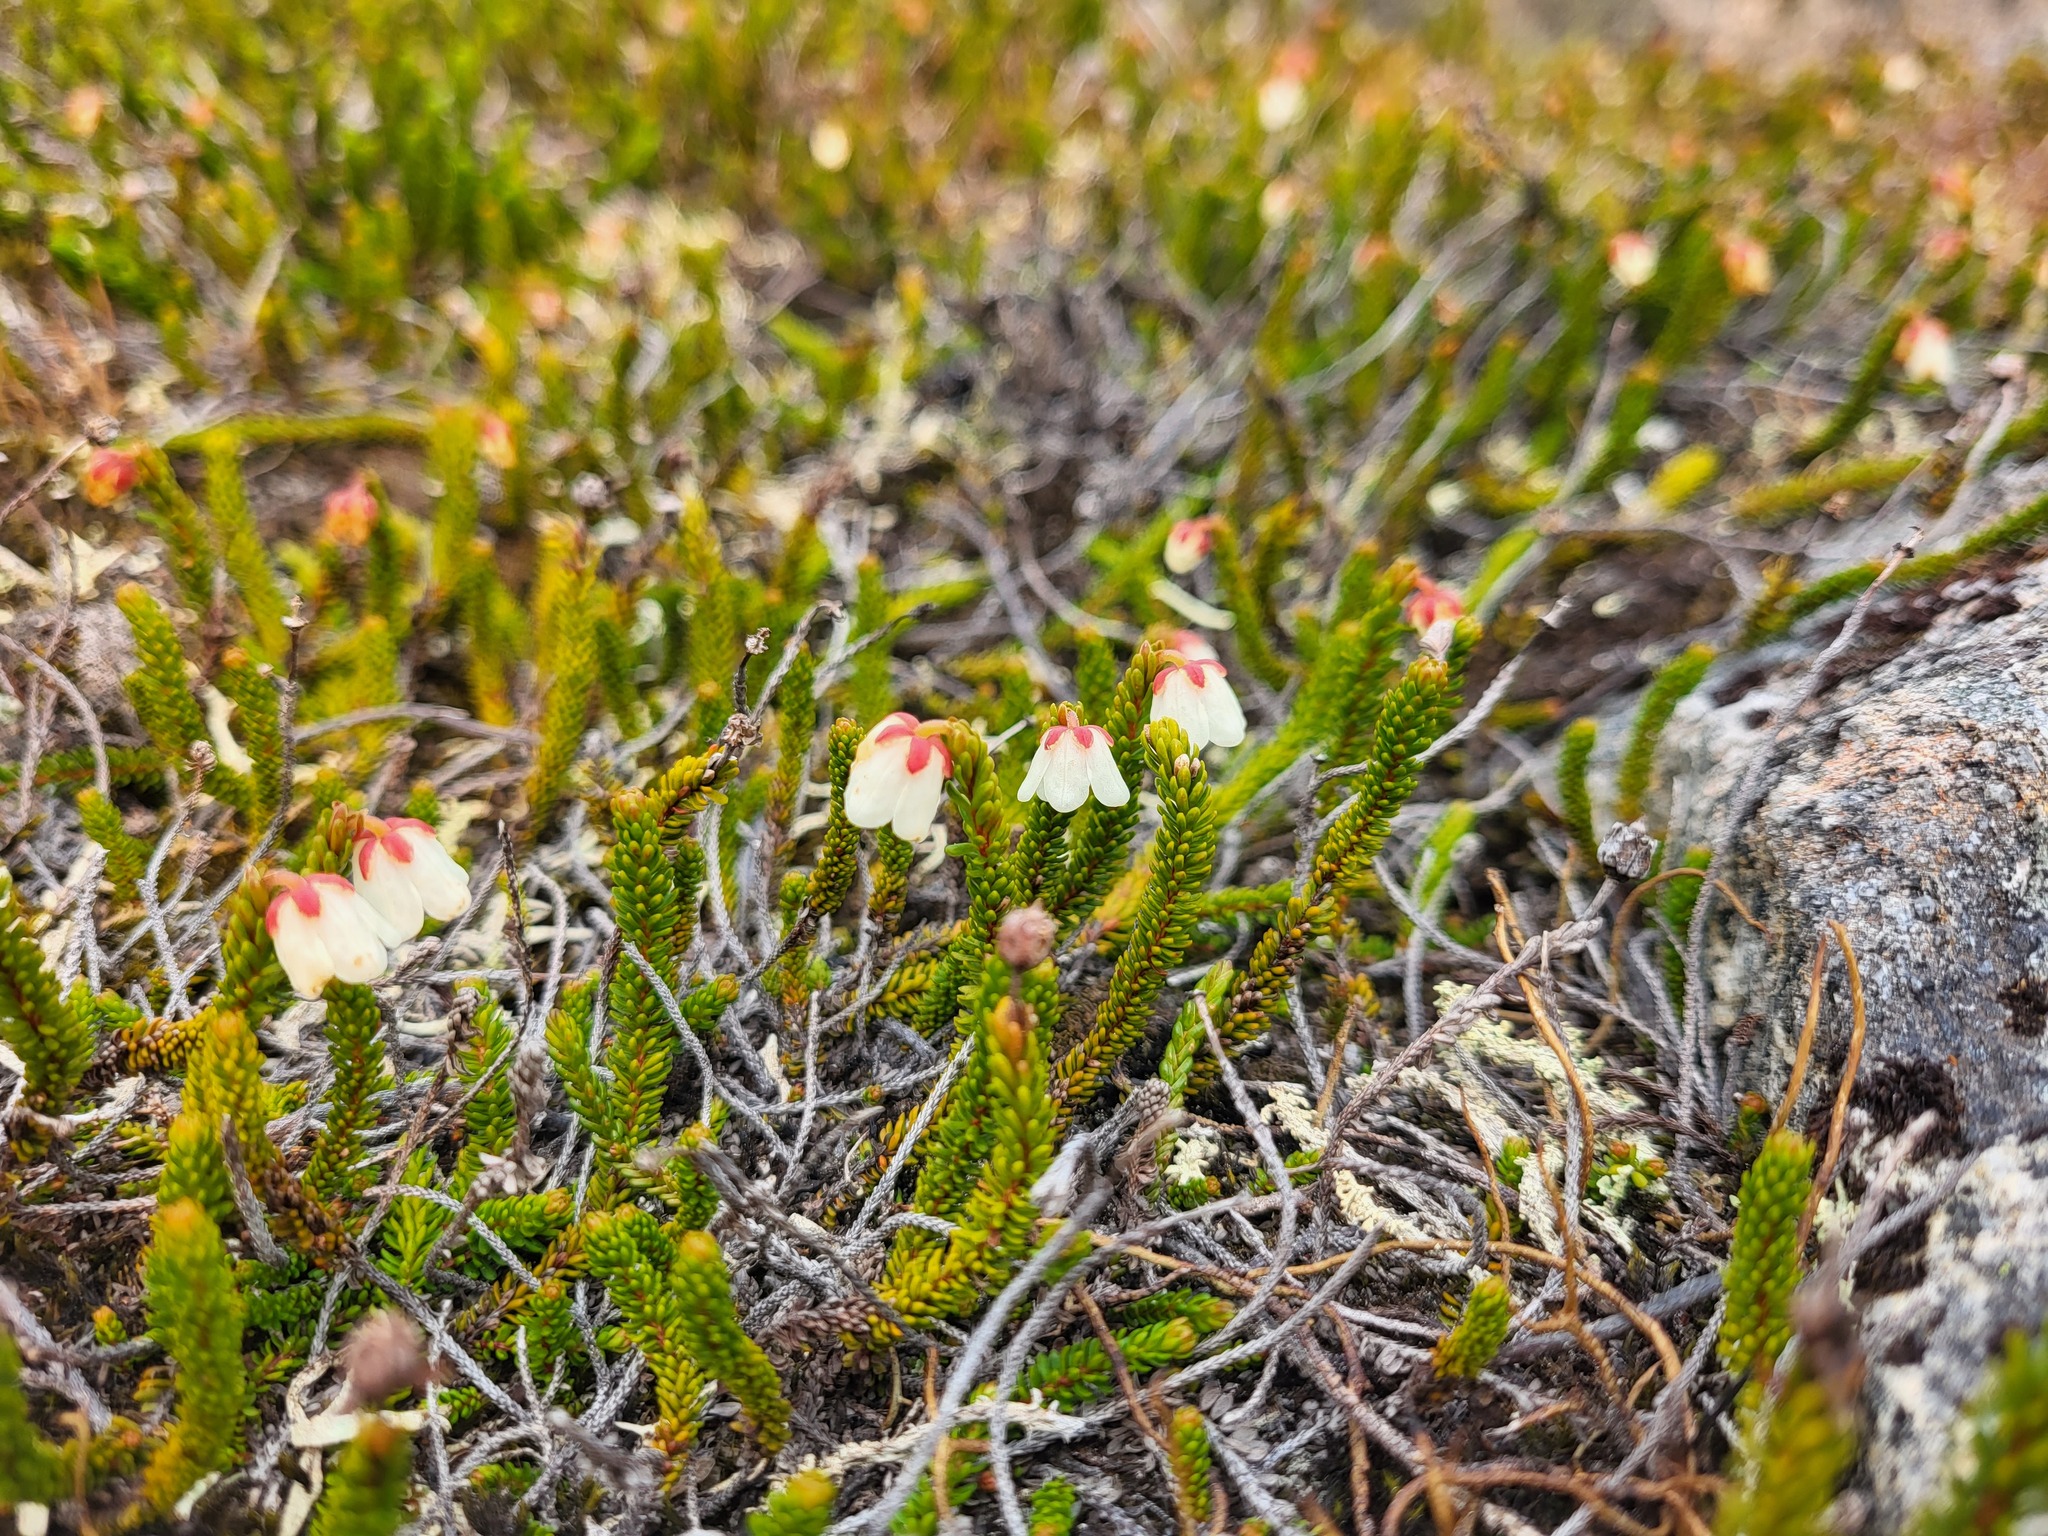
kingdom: Plantae
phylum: Tracheophyta
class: Magnoliopsida
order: Ericales
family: Ericaceae
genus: Harrimanella
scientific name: Harrimanella stelleriana
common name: Alaska bell heather
